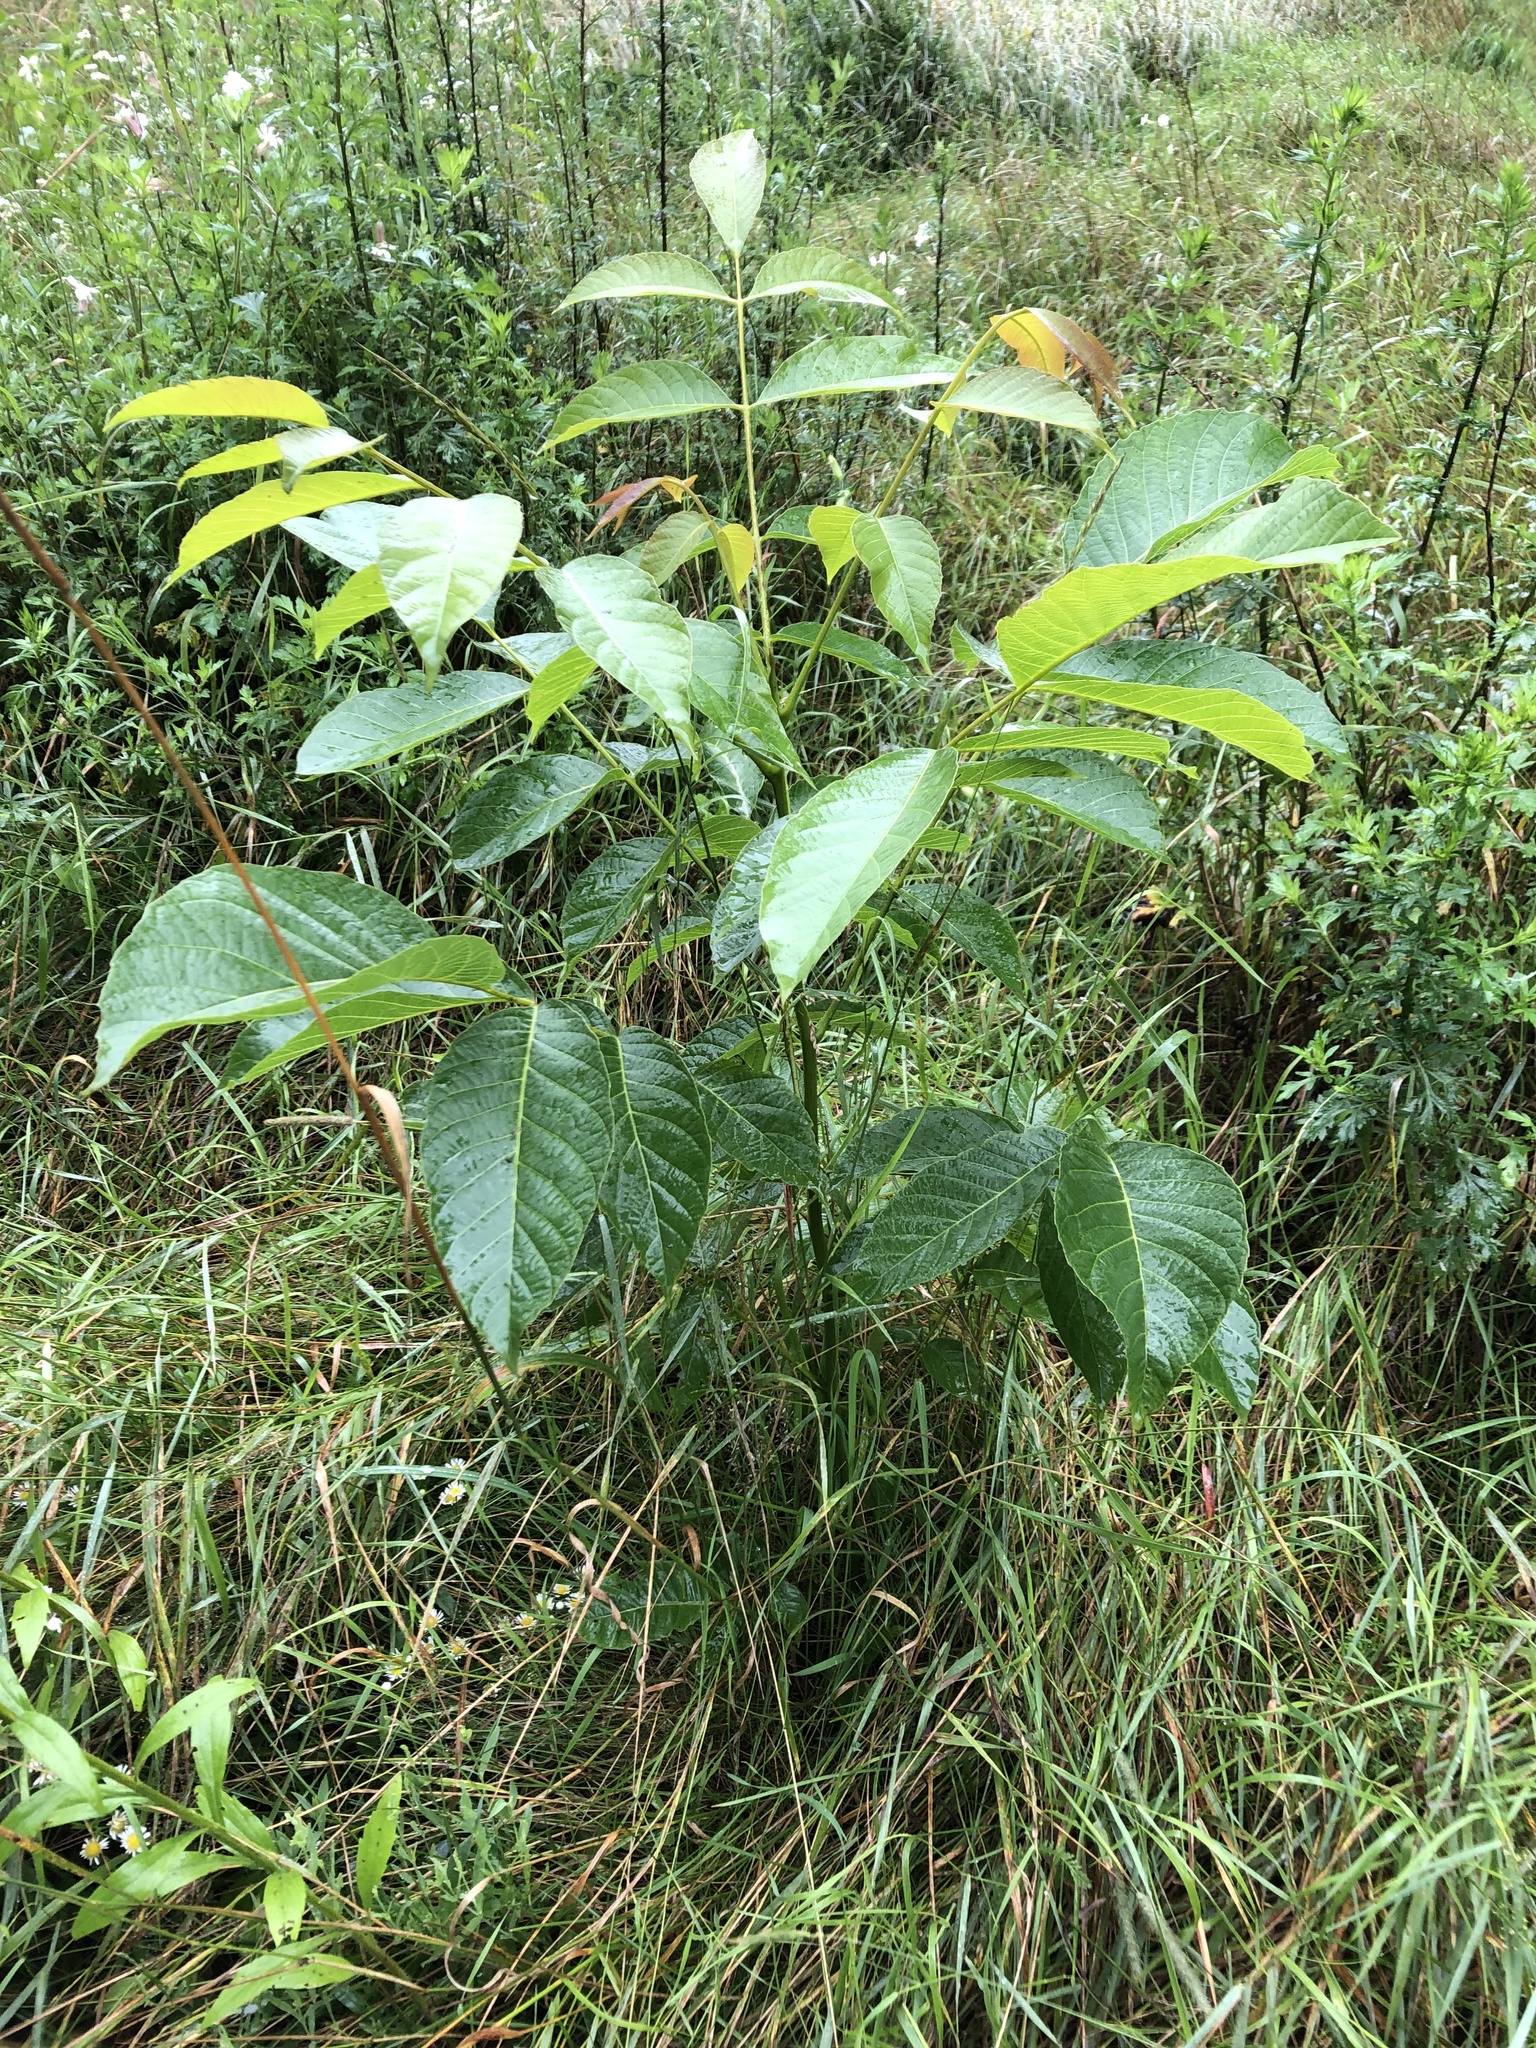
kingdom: Plantae
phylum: Tracheophyta
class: Magnoliopsida
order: Fagales
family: Juglandaceae
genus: Juglans
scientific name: Juglans regia
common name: Walnut
